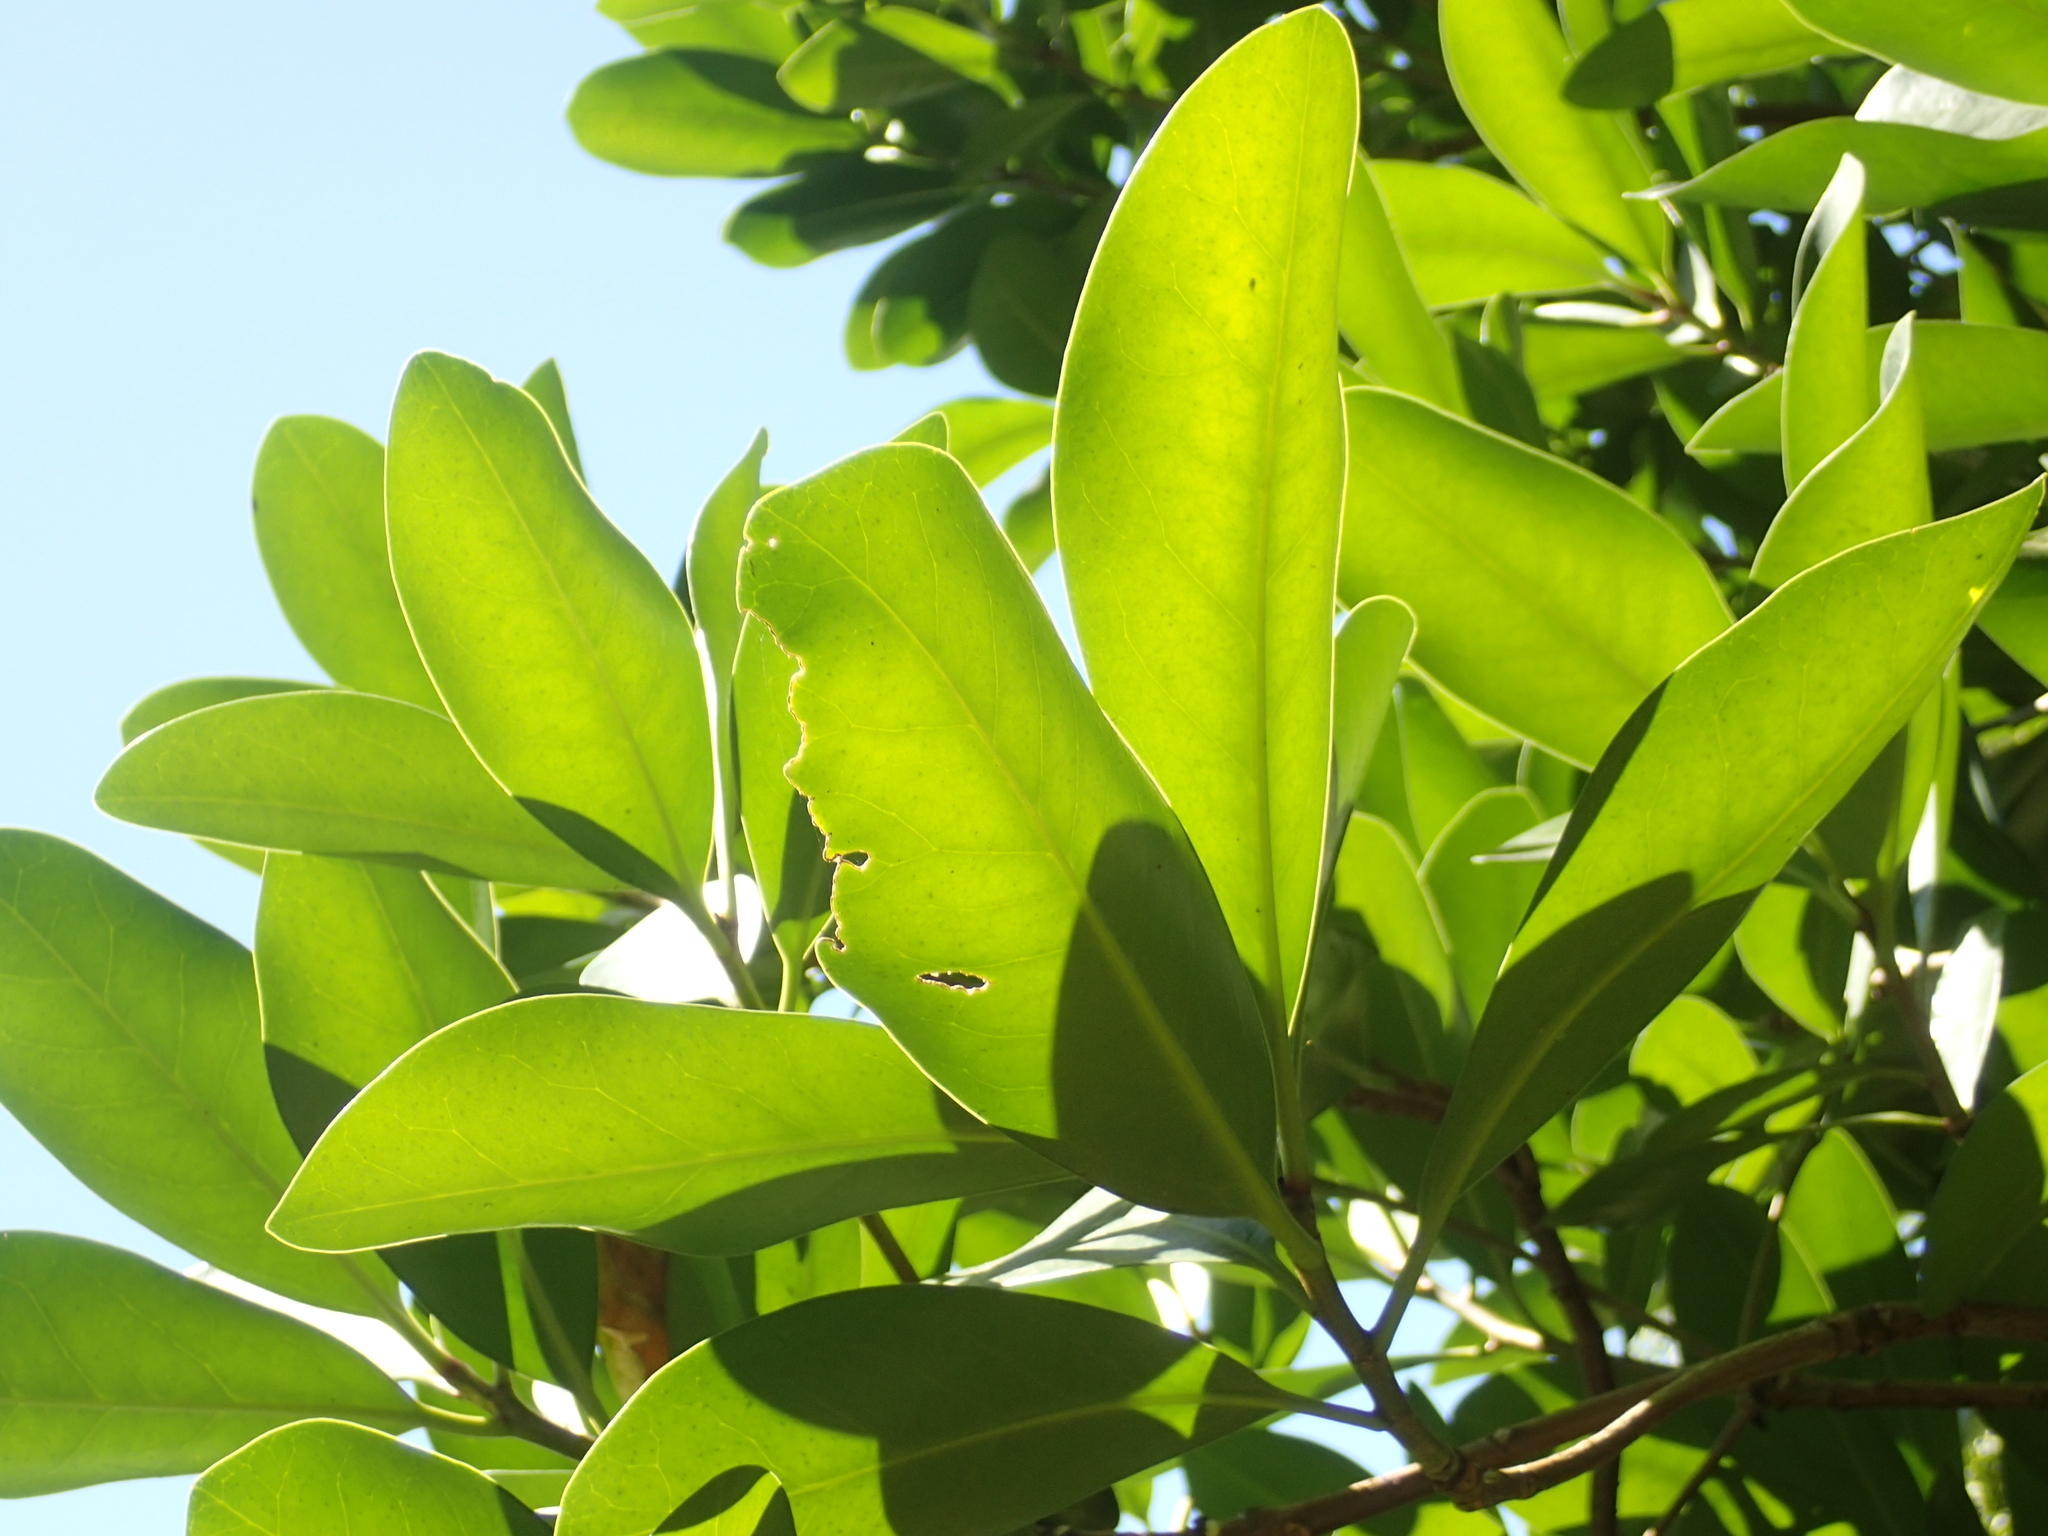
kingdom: Plantae
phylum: Tracheophyta
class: Magnoliopsida
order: Cucurbitales
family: Corynocarpaceae
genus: Corynocarpus
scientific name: Corynocarpus laevigatus
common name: New zealand laurel
